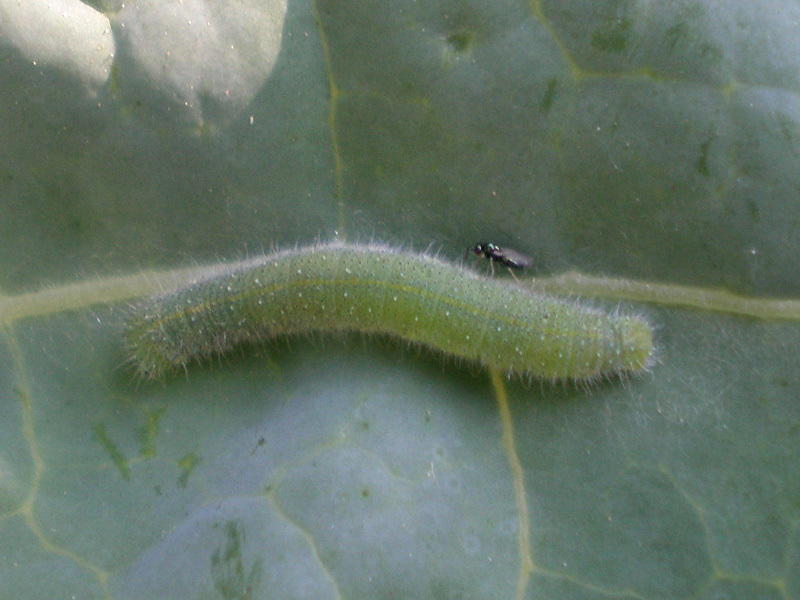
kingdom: Animalia
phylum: Arthropoda
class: Insecta
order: Lepidoptera
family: Pieridae
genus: Pieris
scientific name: Pieris rapae
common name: Small white
